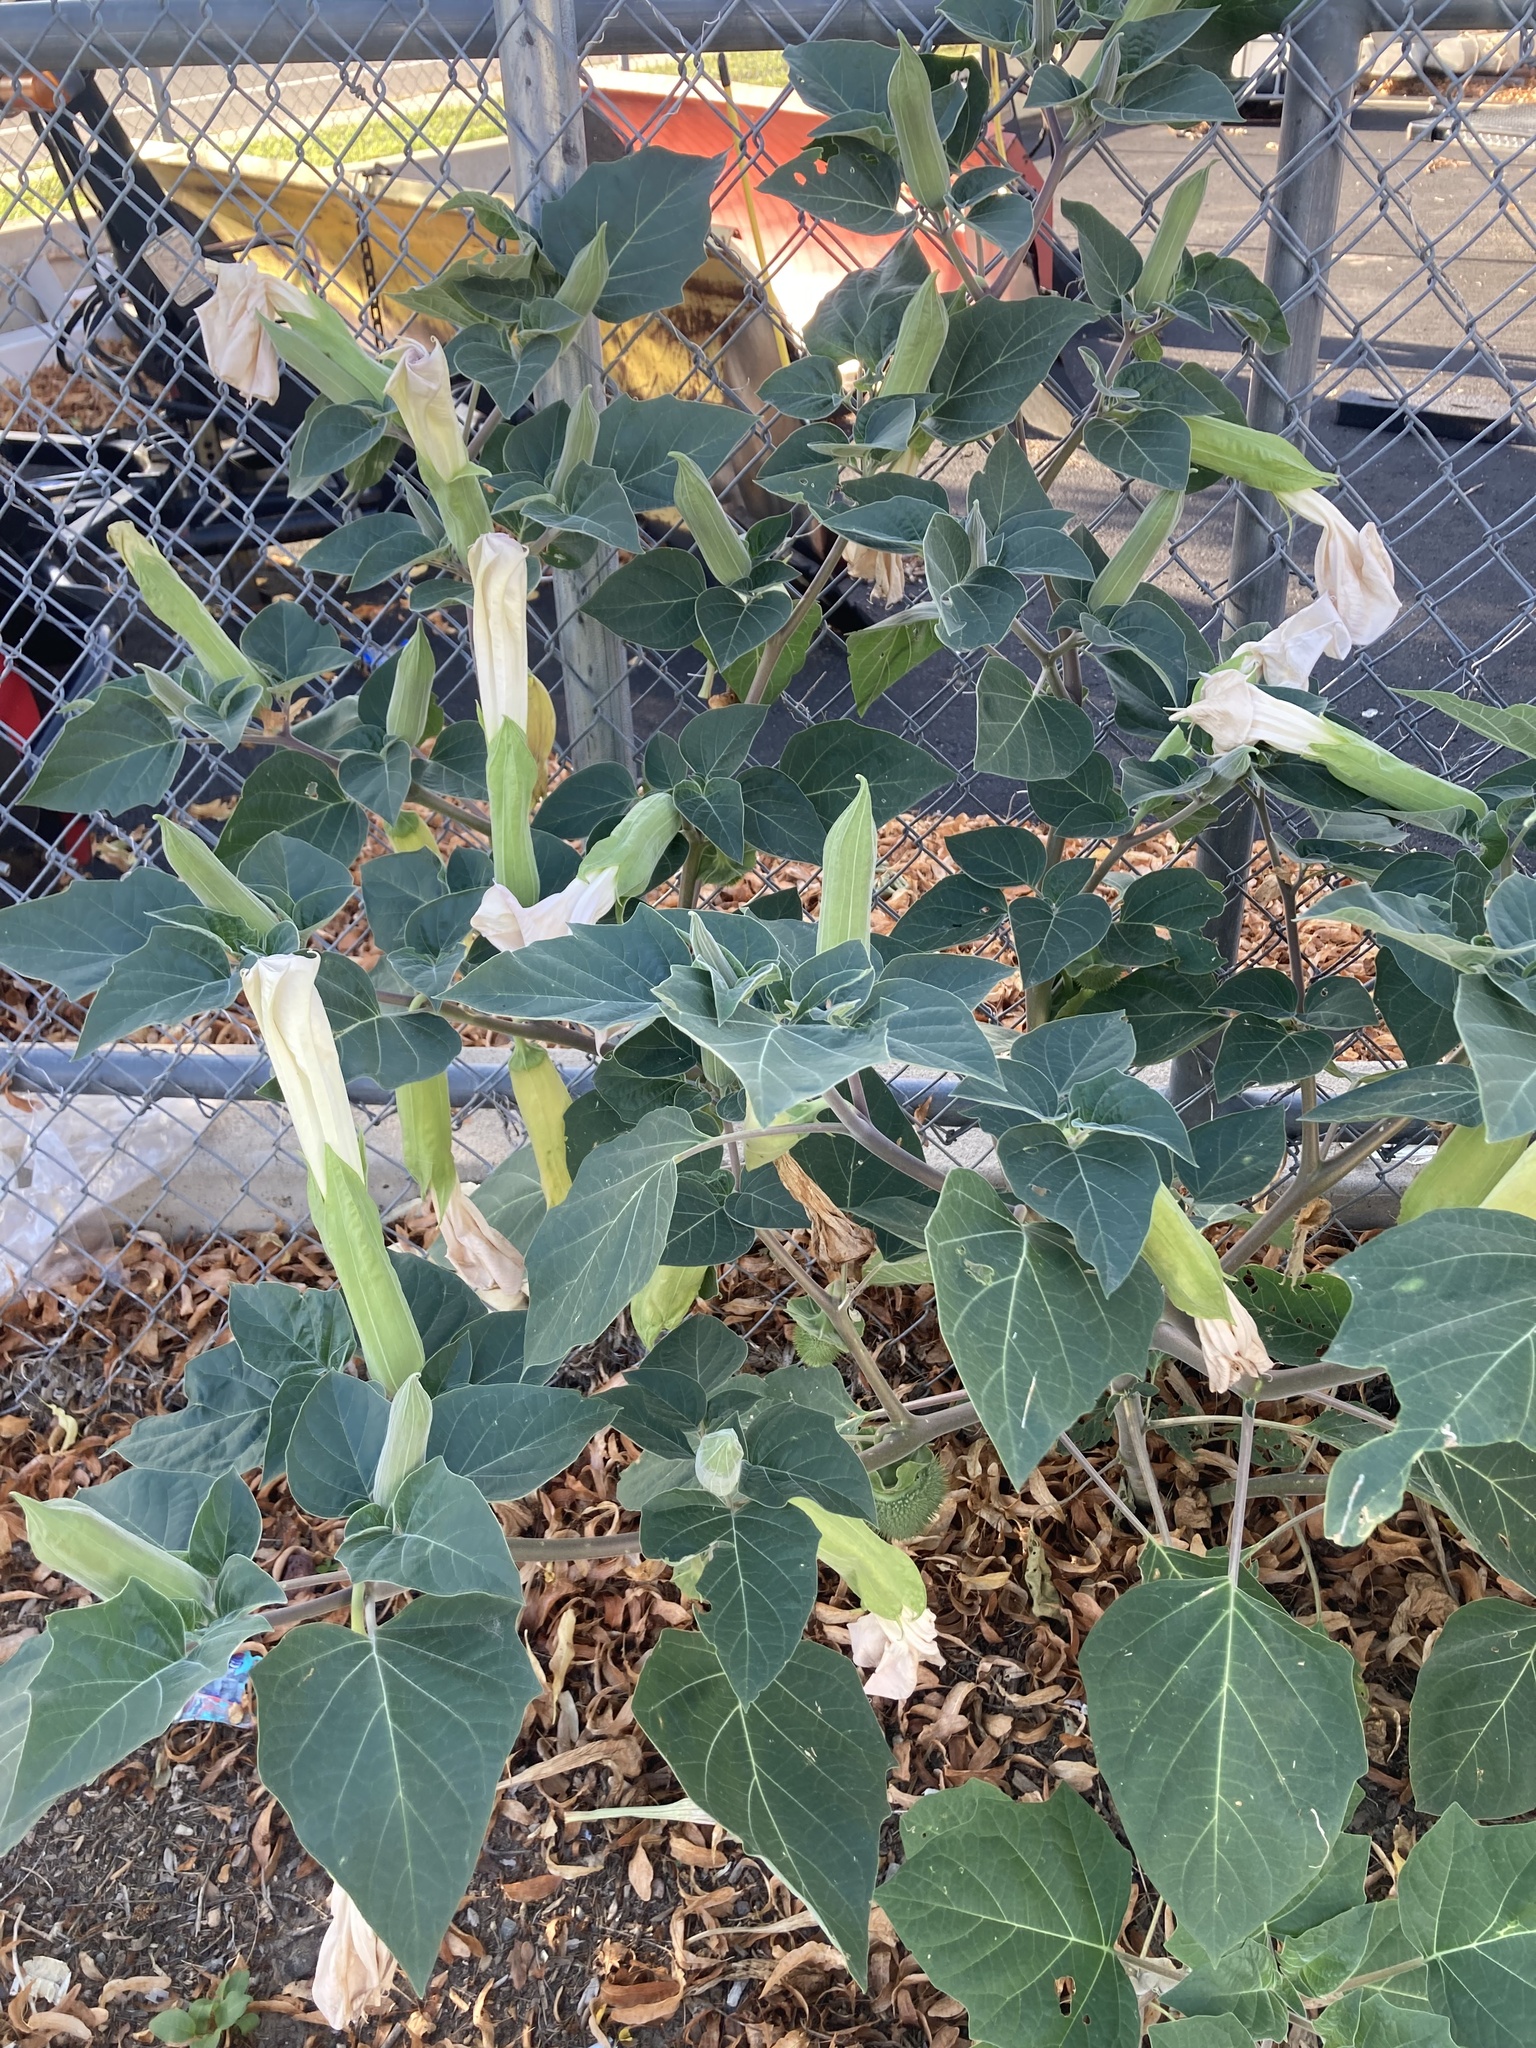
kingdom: Plantae
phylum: Tracheophyta
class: Magnoliopsida
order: Solanales
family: Solanaceae
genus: Datura
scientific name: Datura wrightii
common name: Sacred thorn-apple
